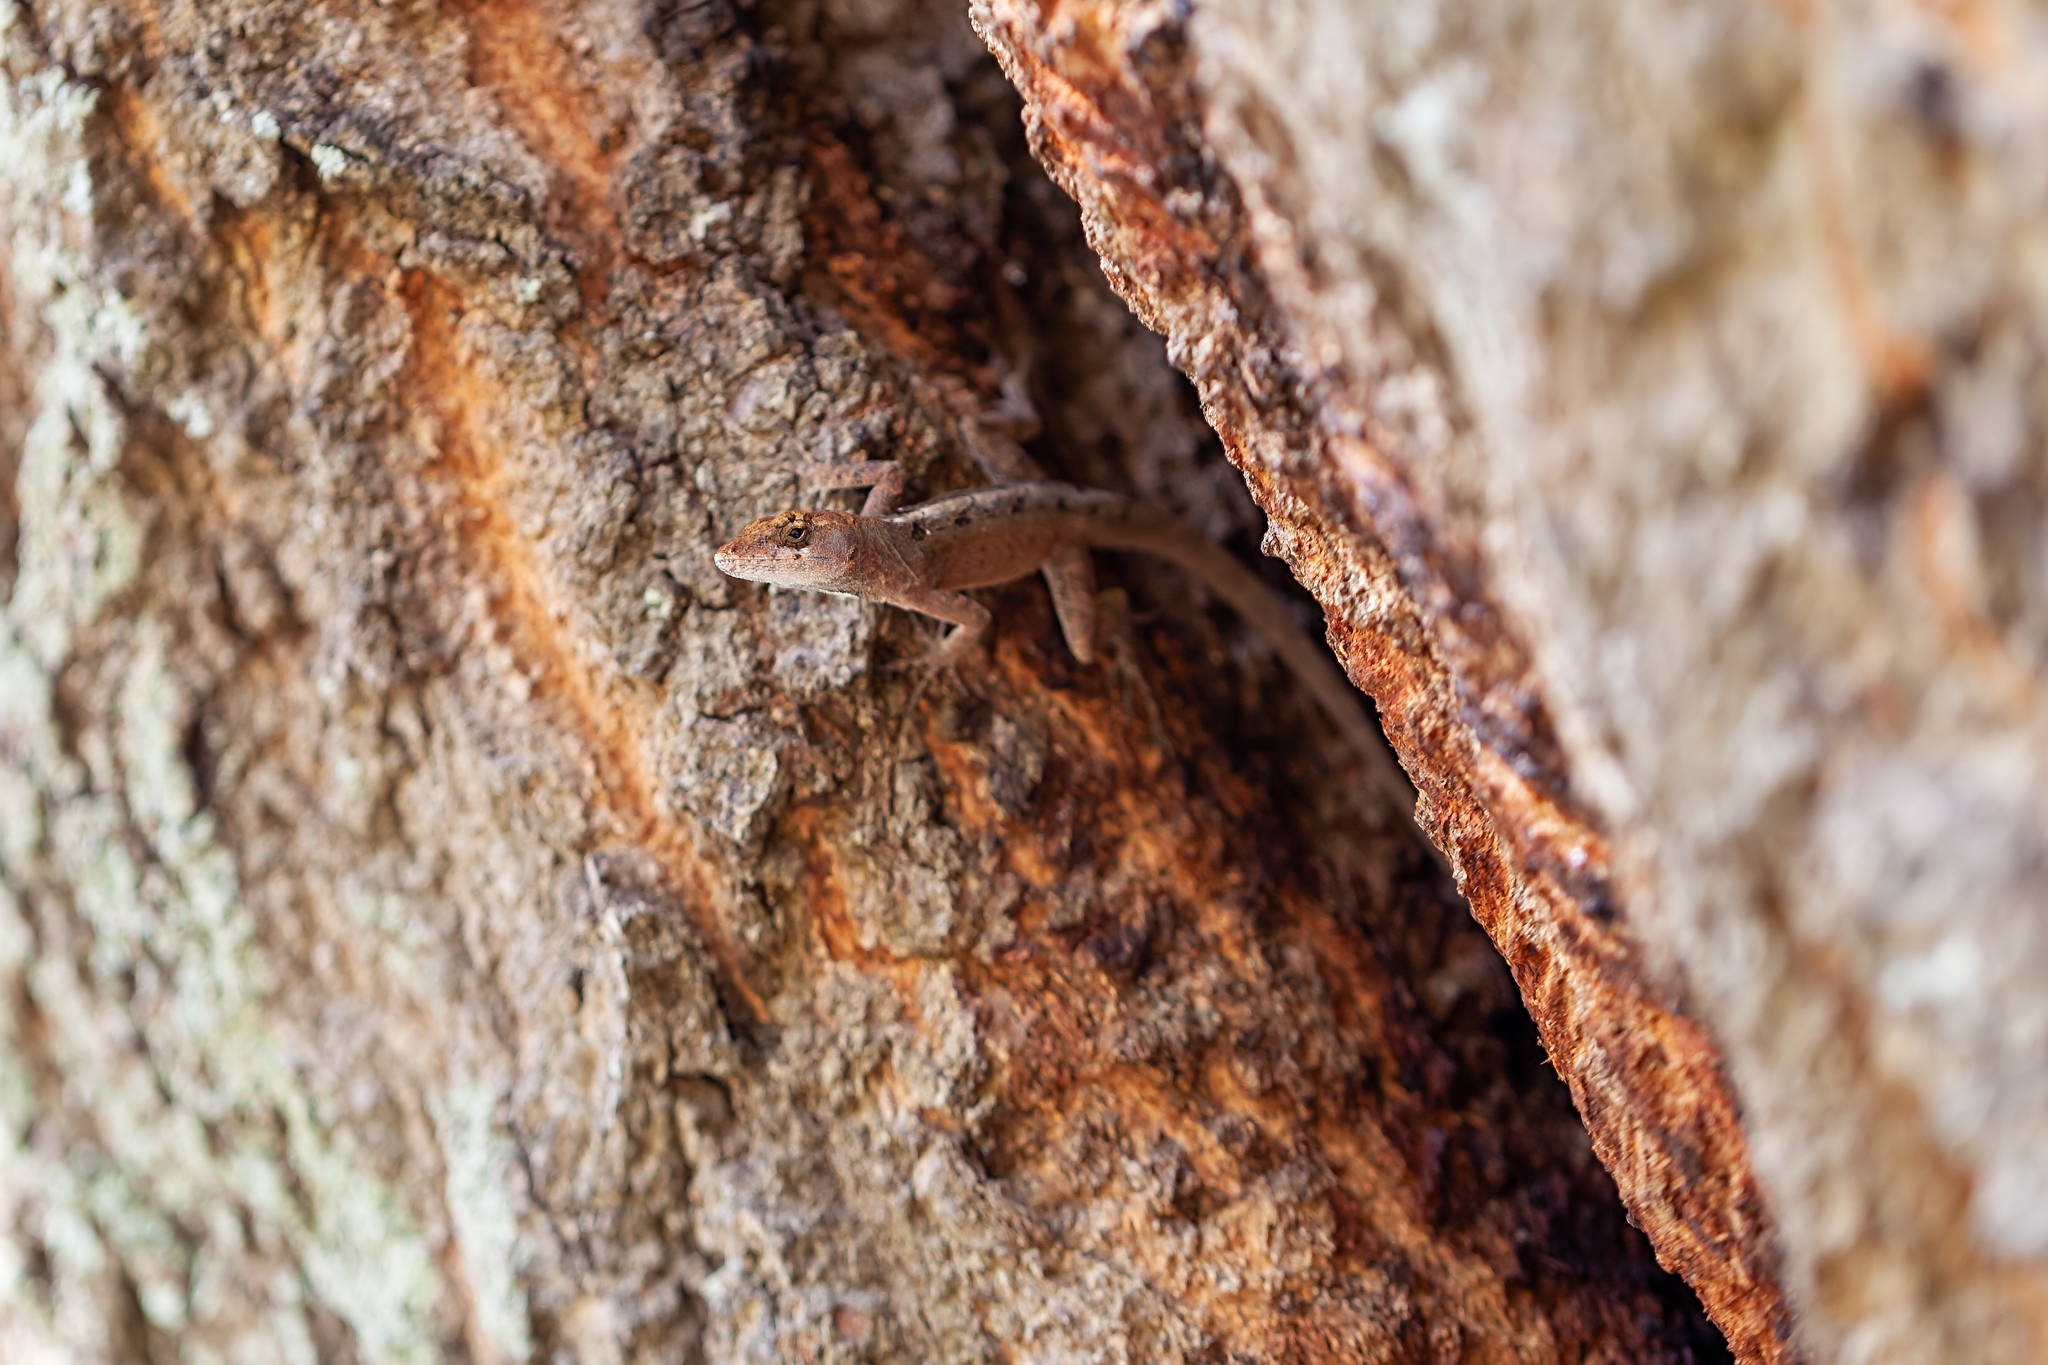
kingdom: Animalia
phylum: Chordata
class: Squamata
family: Dactyloidae
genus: Anolis
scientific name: Anolis sagrei
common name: Brown anole
